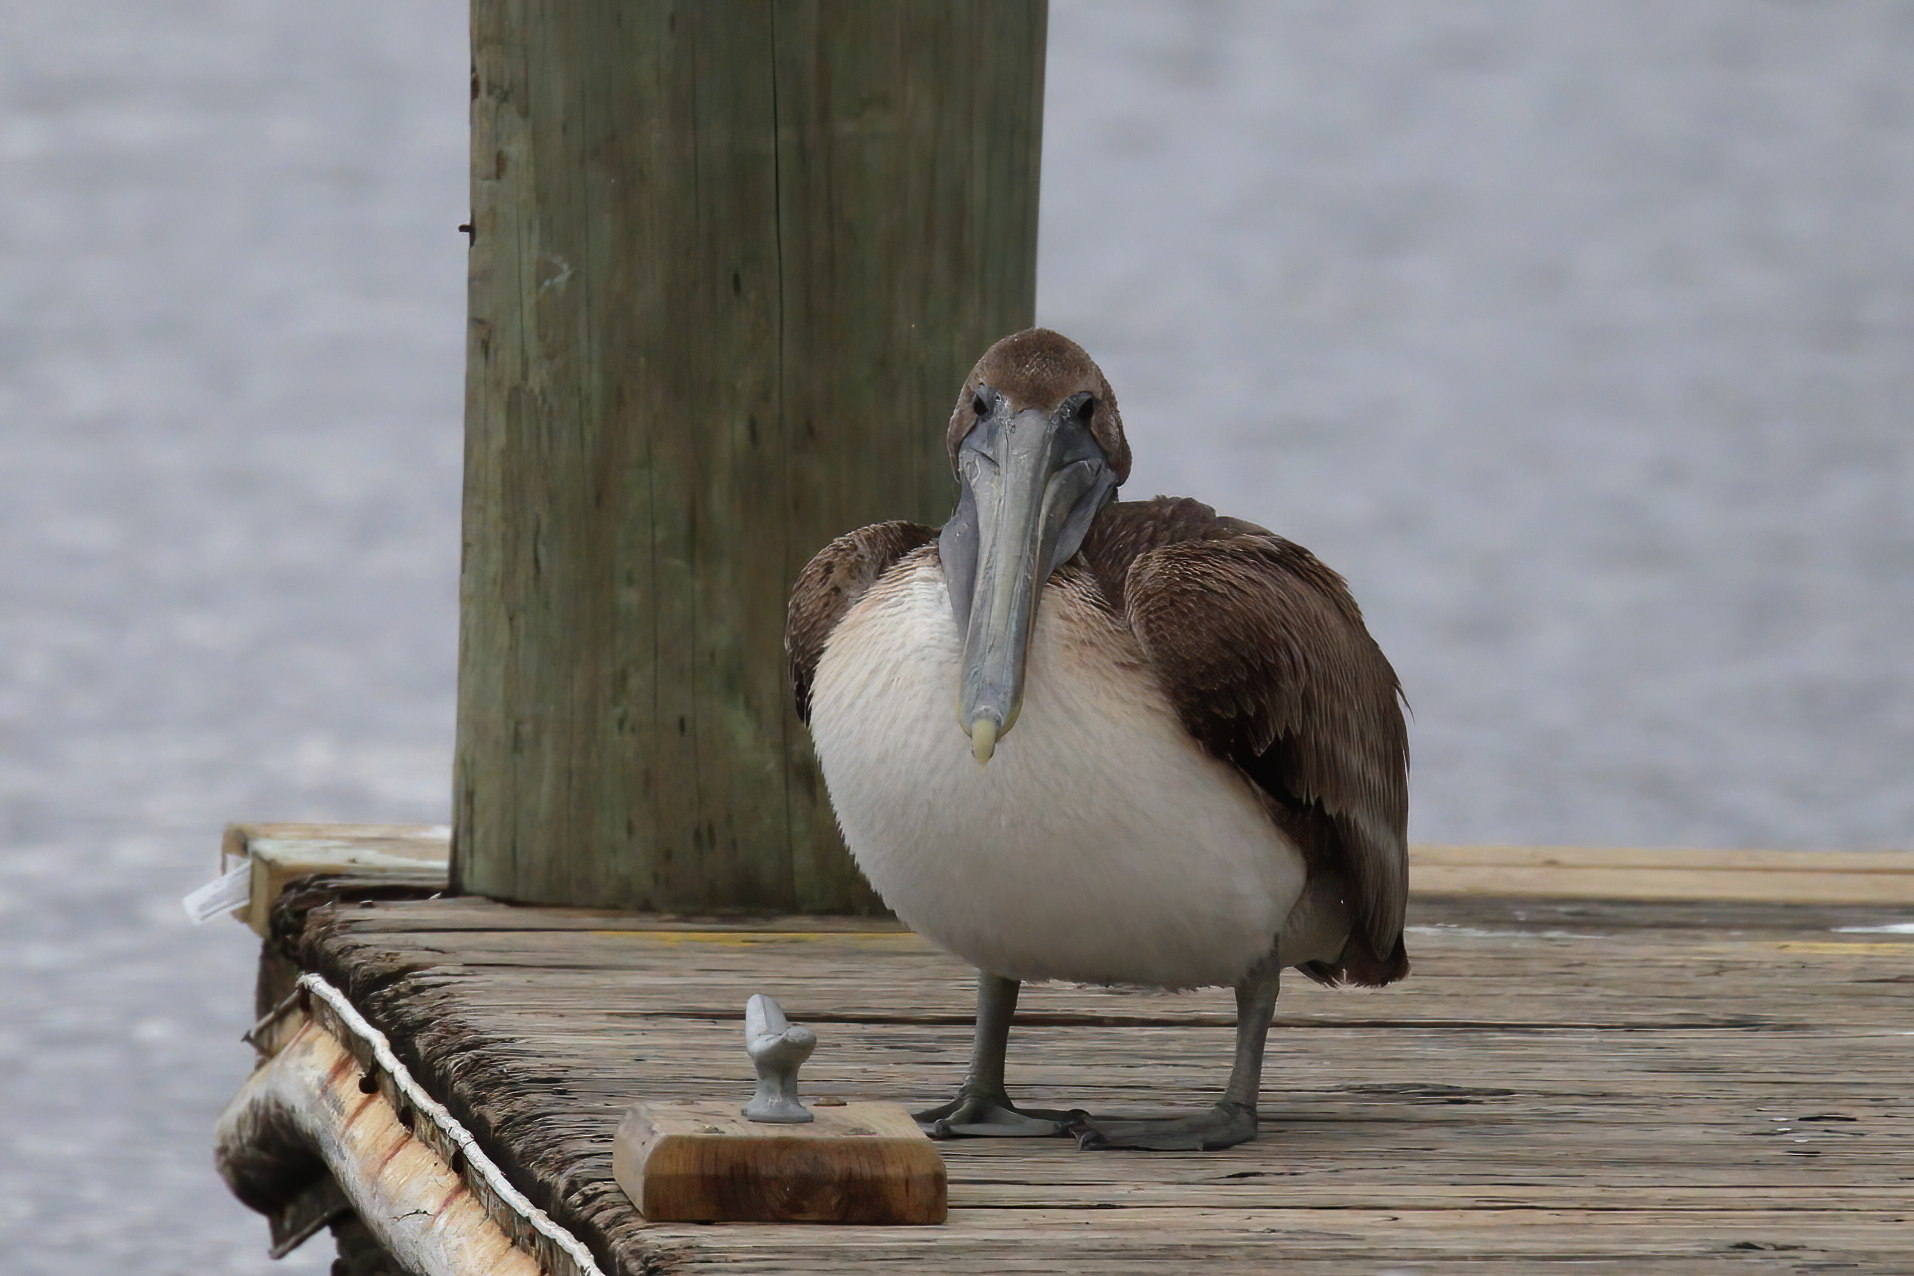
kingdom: Animalia
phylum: Chordata
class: Aves
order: Pelecaniformes
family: Pelecanidae
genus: Pelecanus
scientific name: Pelecanus occidentalis
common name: Brown pelican
